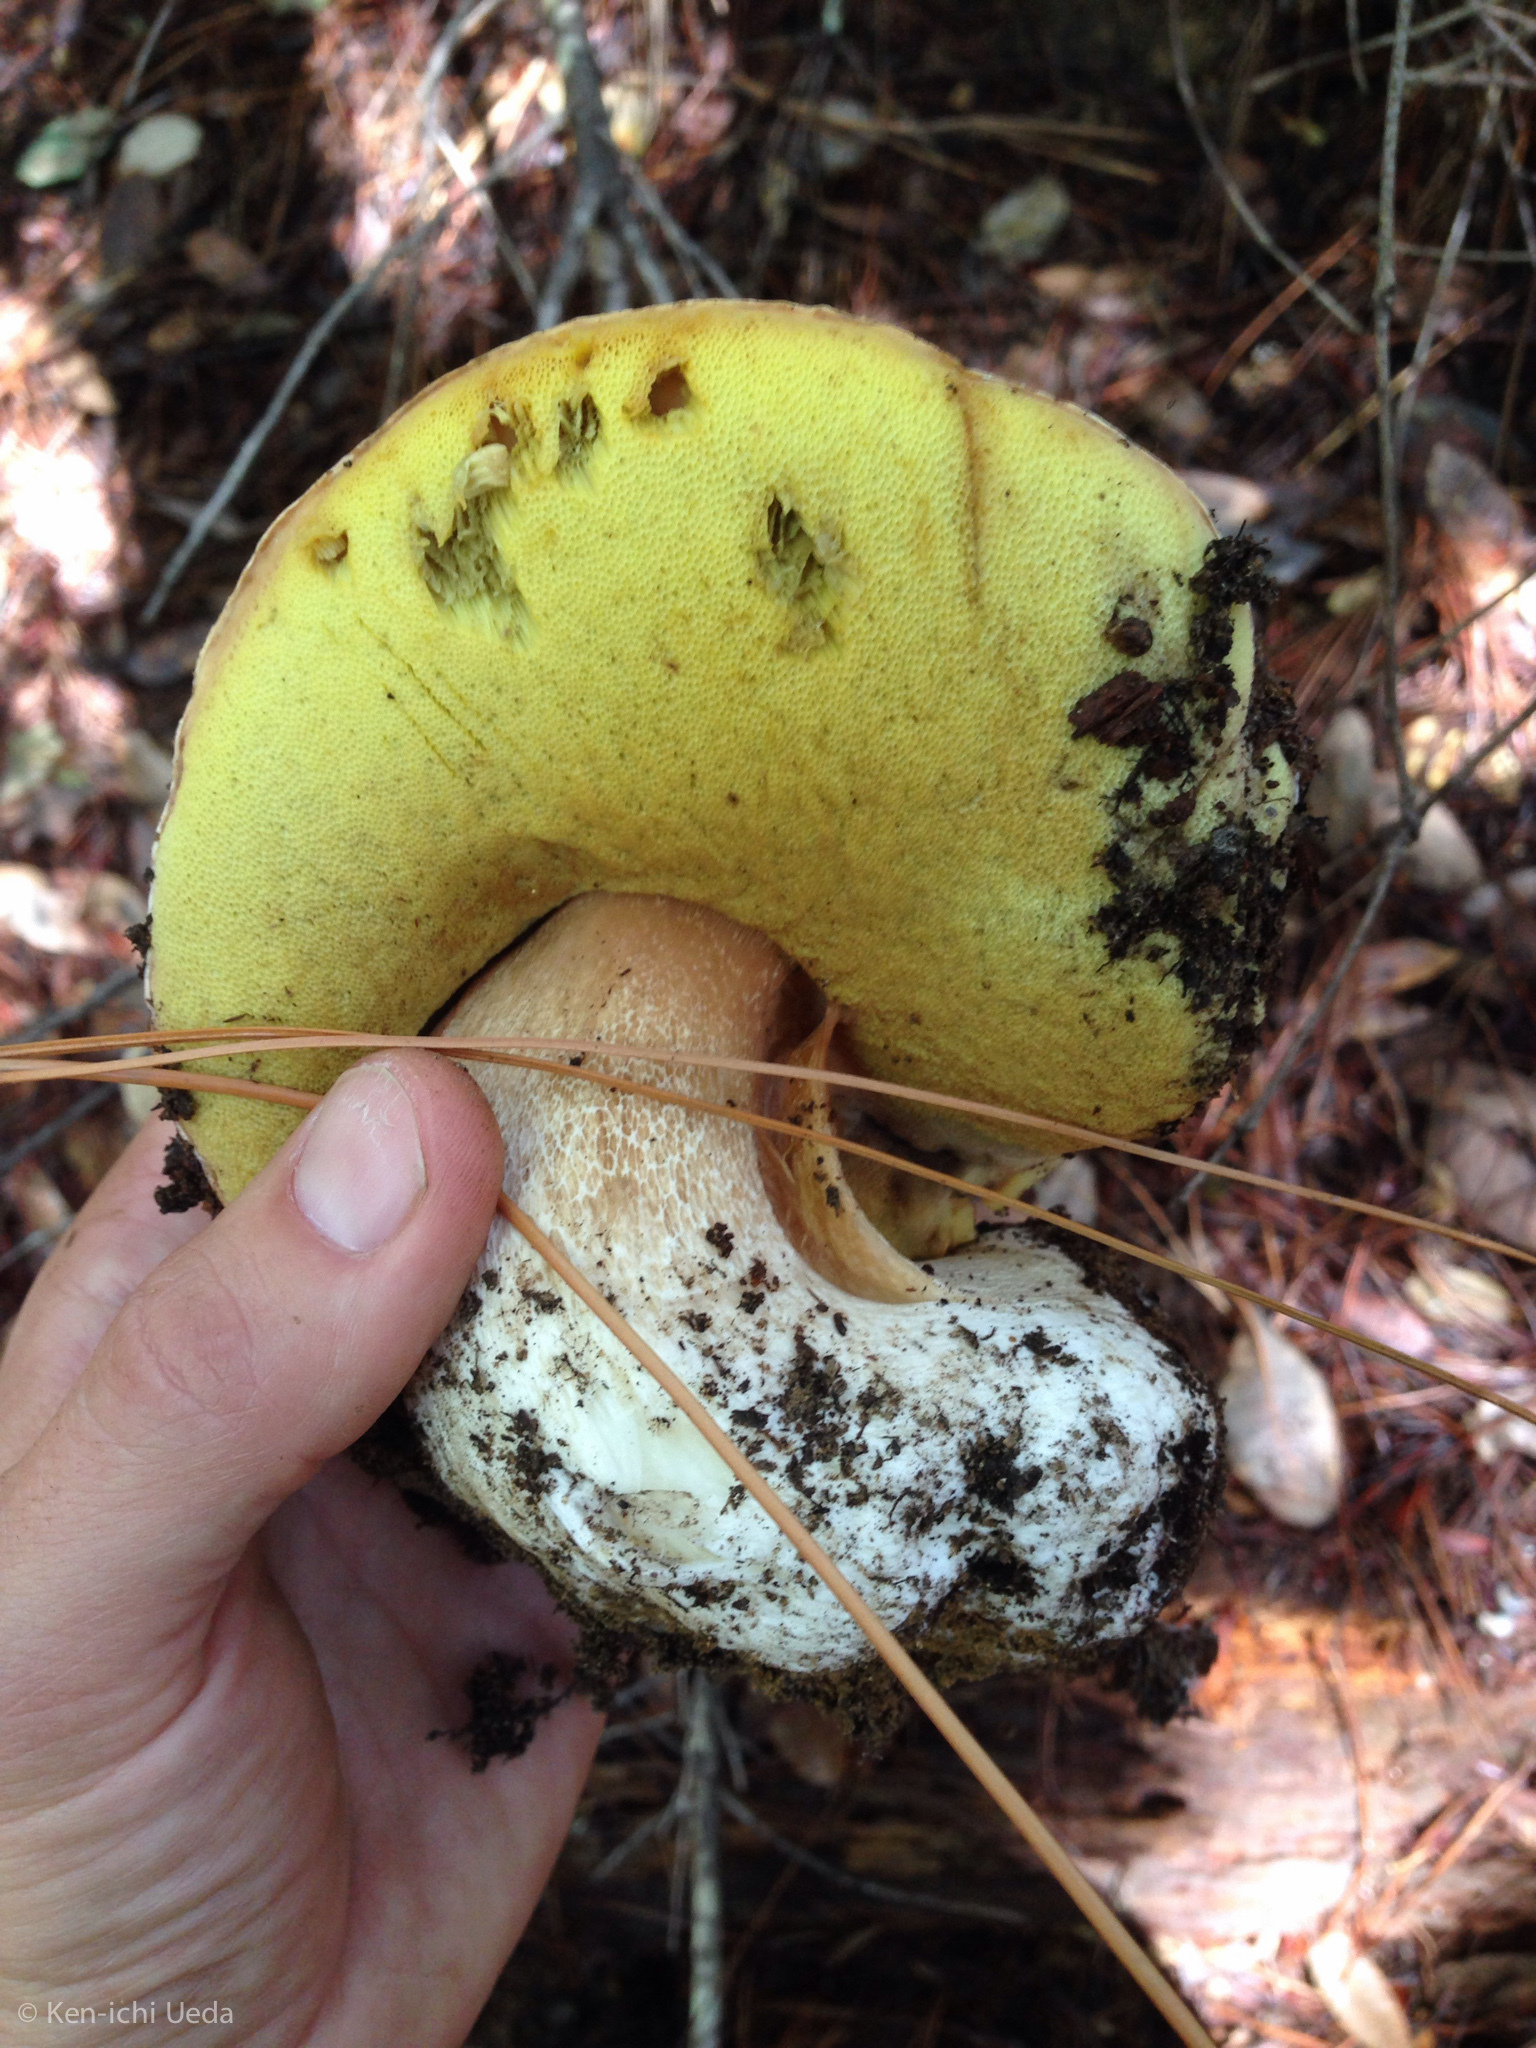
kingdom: Fungi
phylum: Basidiomycota
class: Agaricomycetes
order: Boletales
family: Boletaceae
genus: Boletus
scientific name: Boletus edulis
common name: Cep
